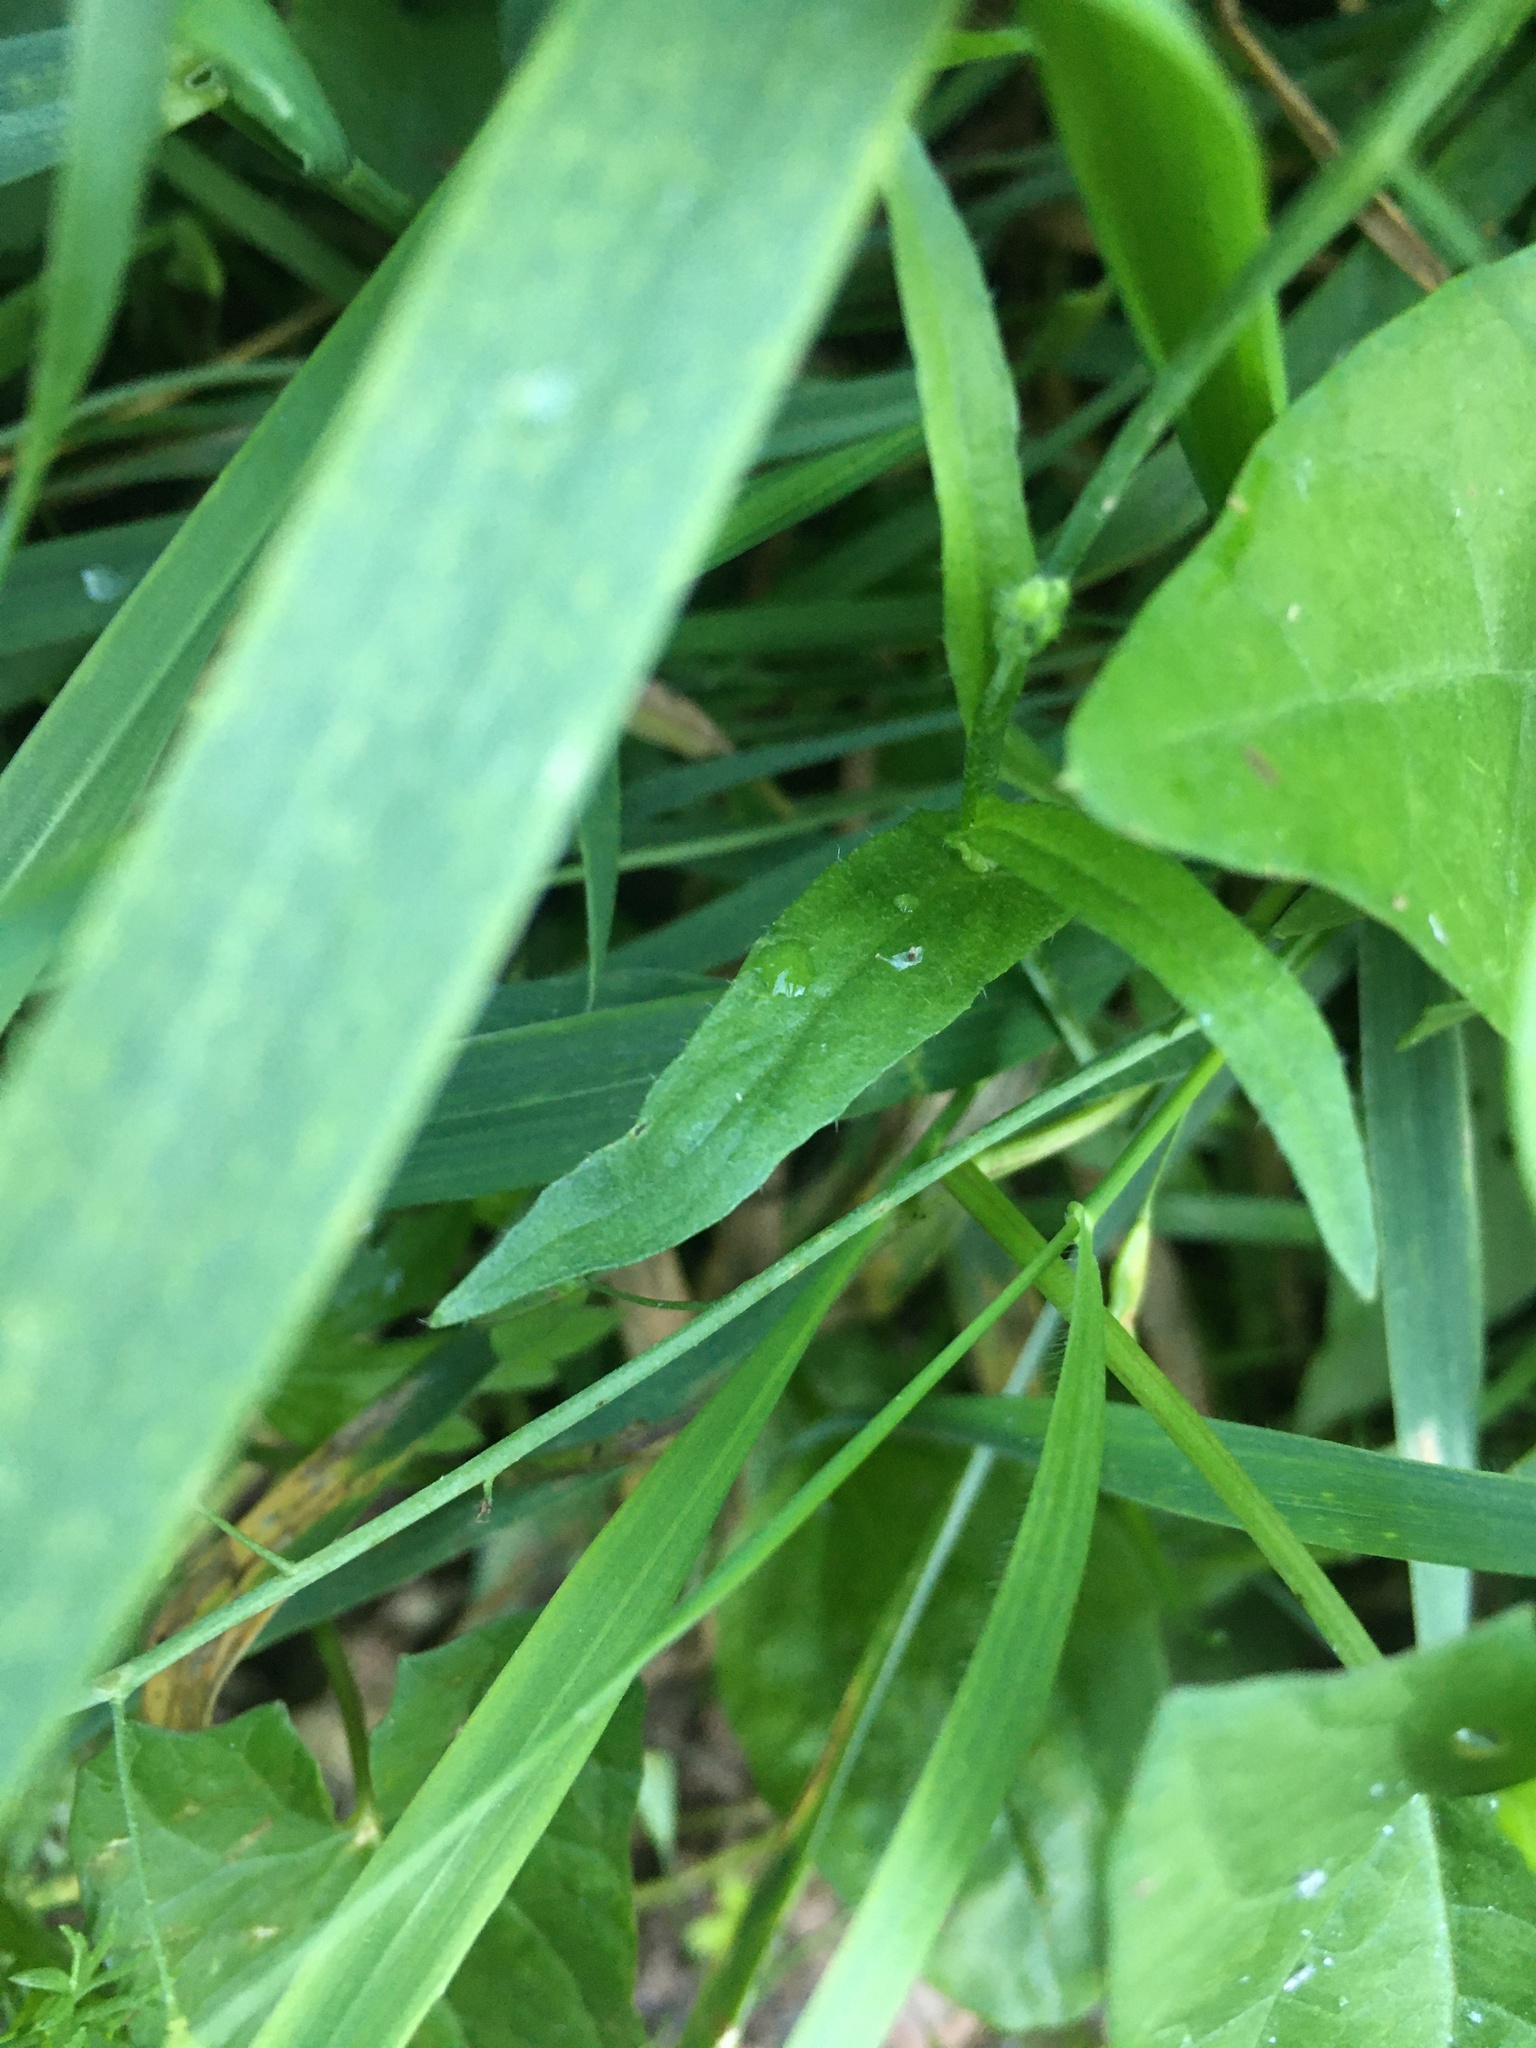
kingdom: Plantae
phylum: Tracheophyta
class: Magnoliopsida
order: Brassicales
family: Brassicaceae
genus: Capsella
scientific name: Capsella bursa-pastoris
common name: Shepherd's purse
